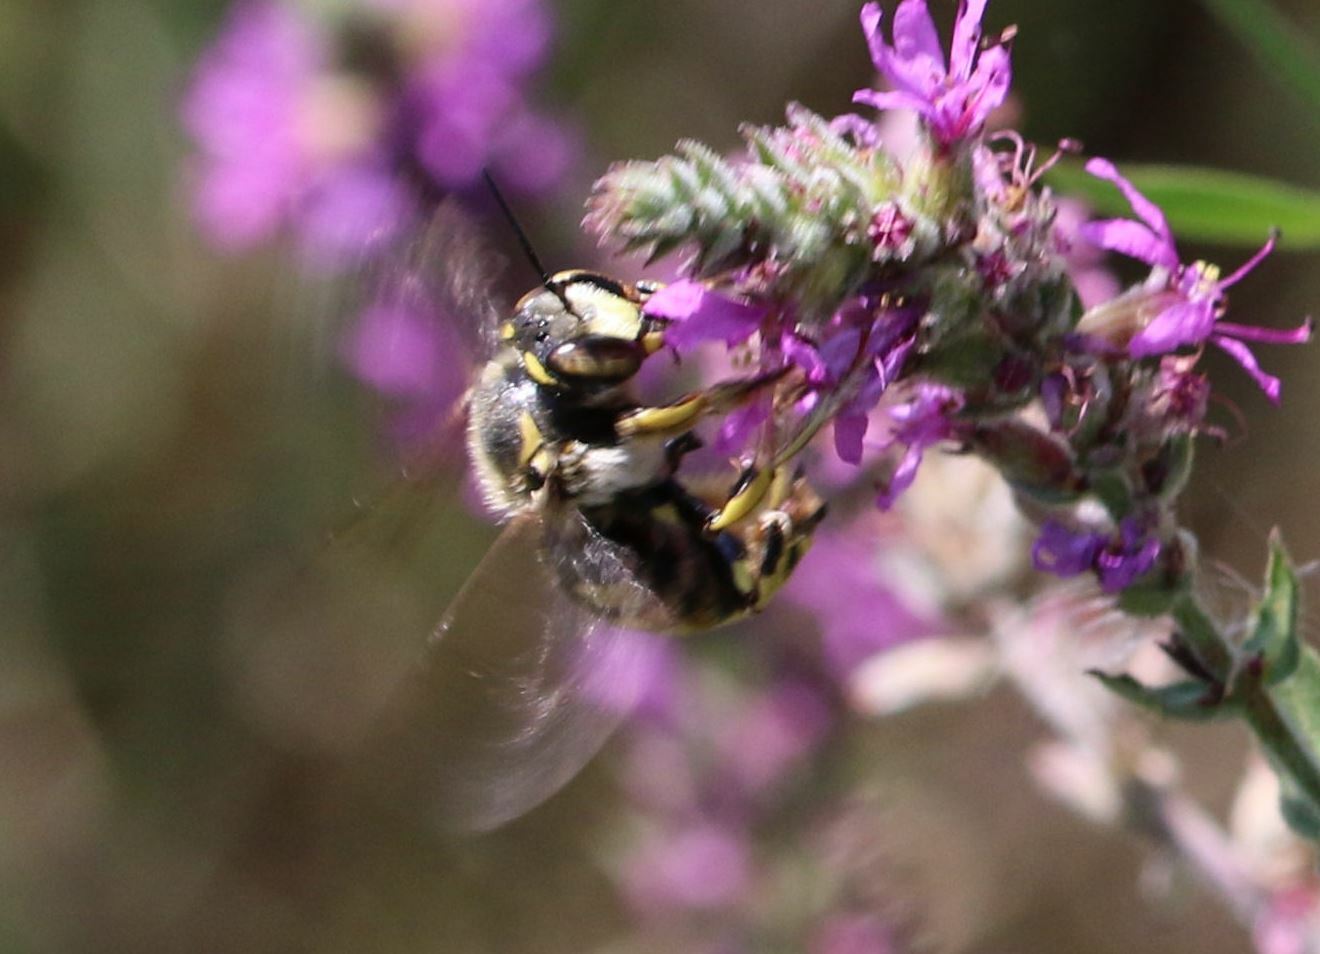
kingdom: Animalia
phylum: Arthropoda
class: Insecta
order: Hymenoptera
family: Megachilidae
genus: Anthidium
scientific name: Anthidium florentinum
